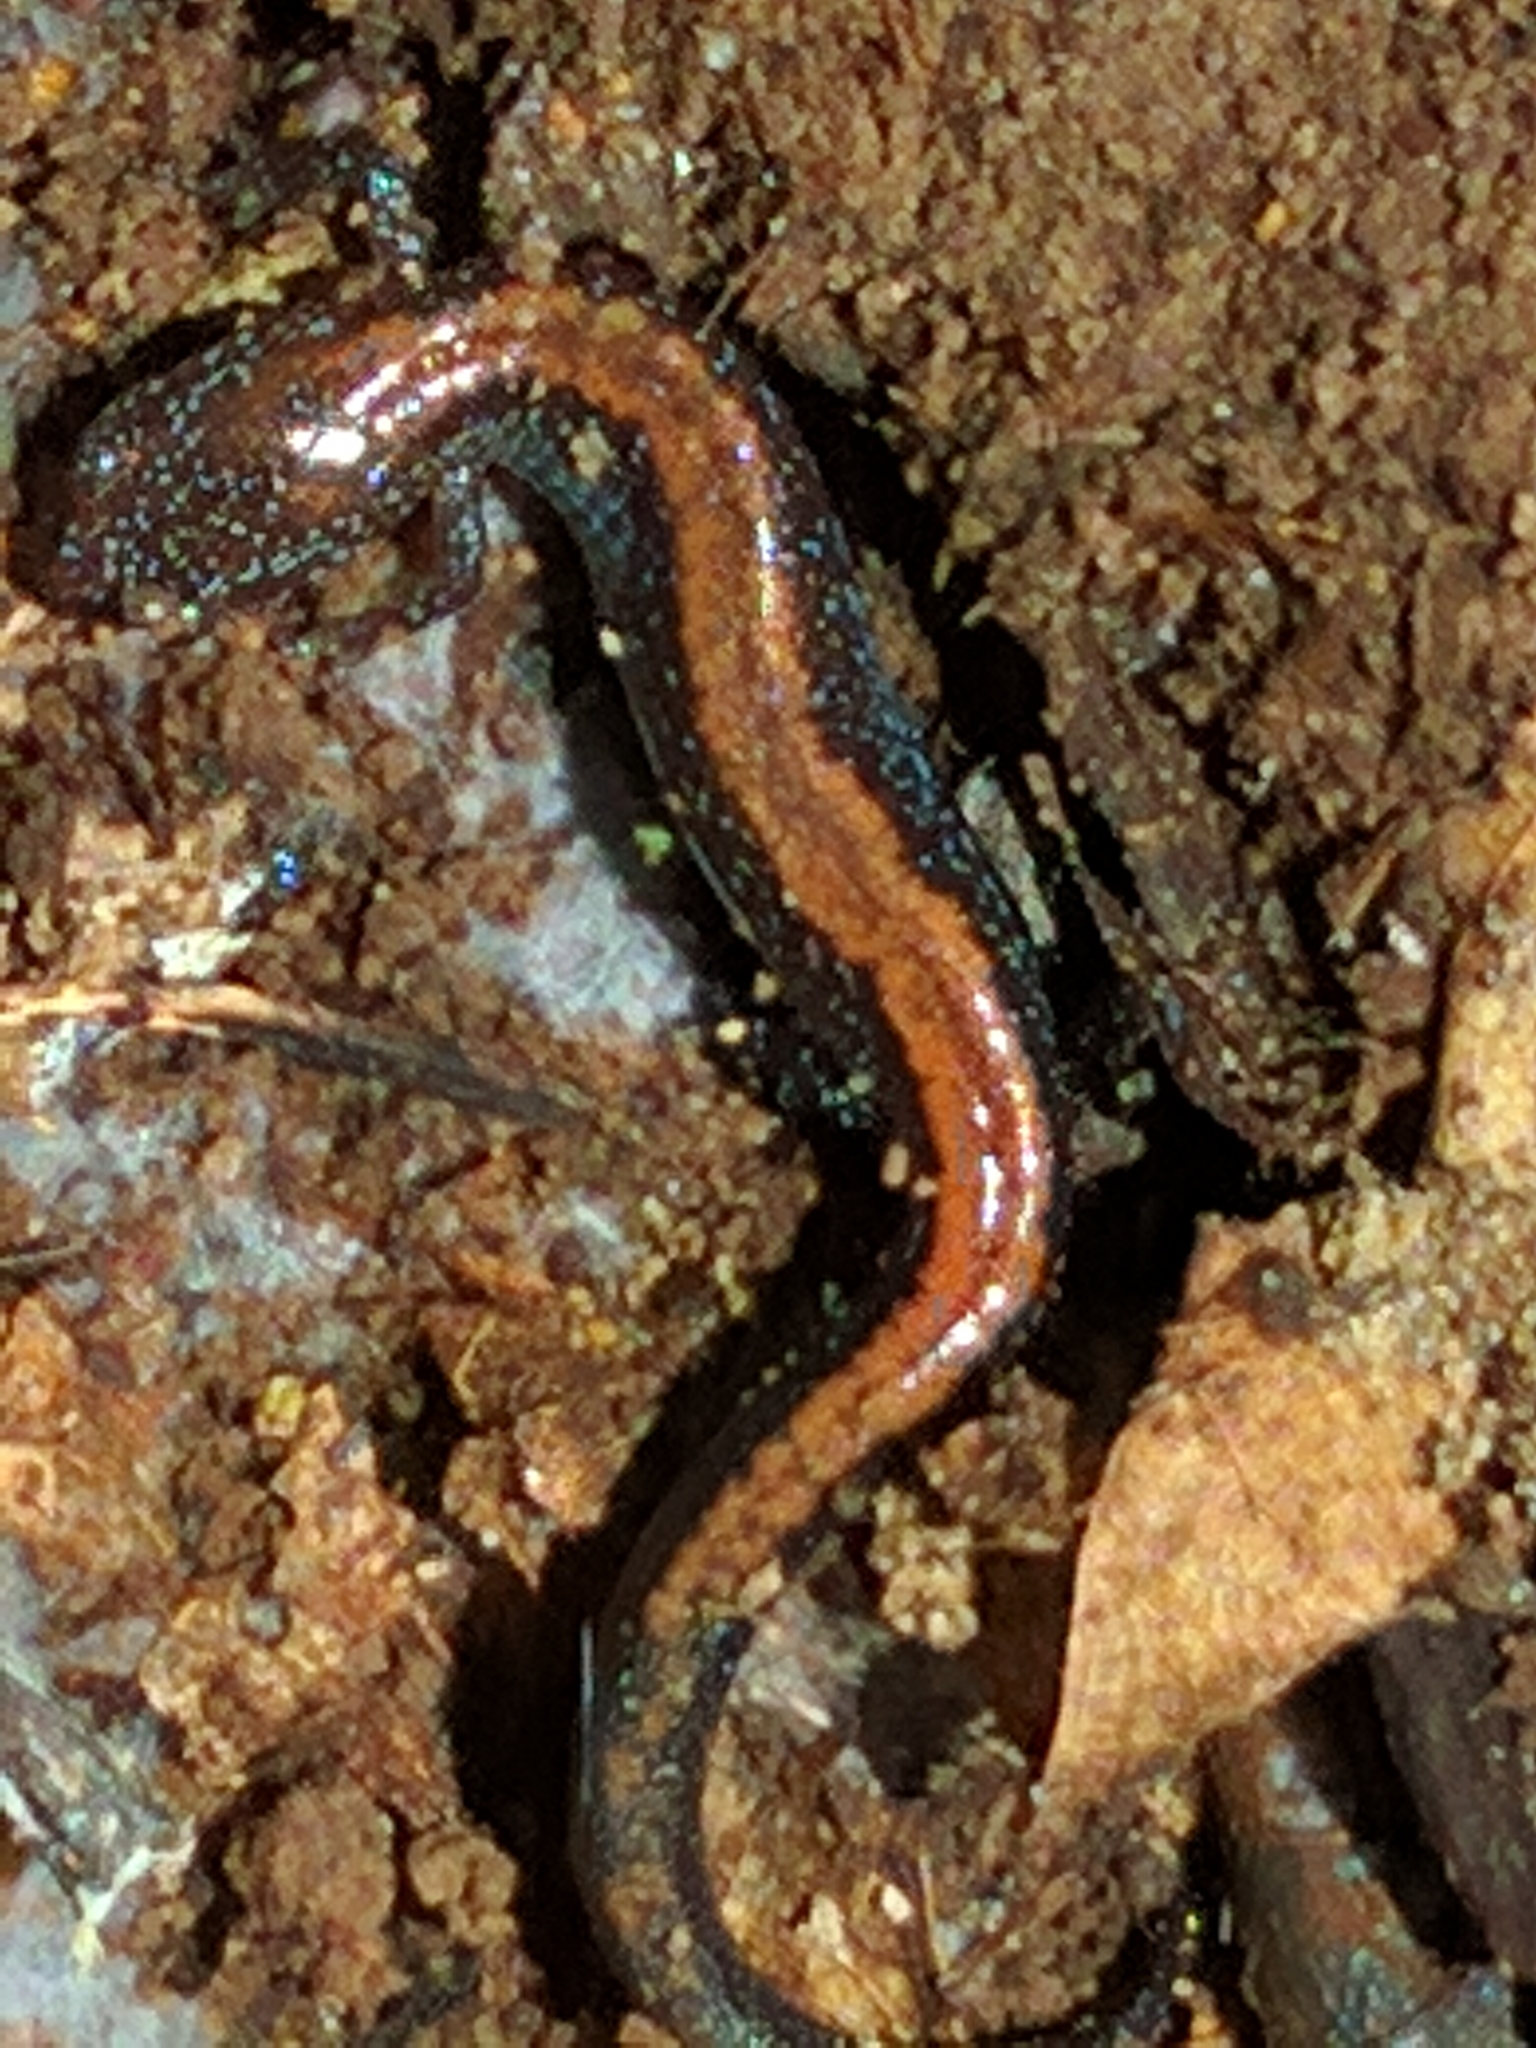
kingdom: Animalia
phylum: Chordata
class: Amphibia
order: Caudata
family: Plethodontidae
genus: Plethodon
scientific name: Plethodon cinereus
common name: Redback salamander
